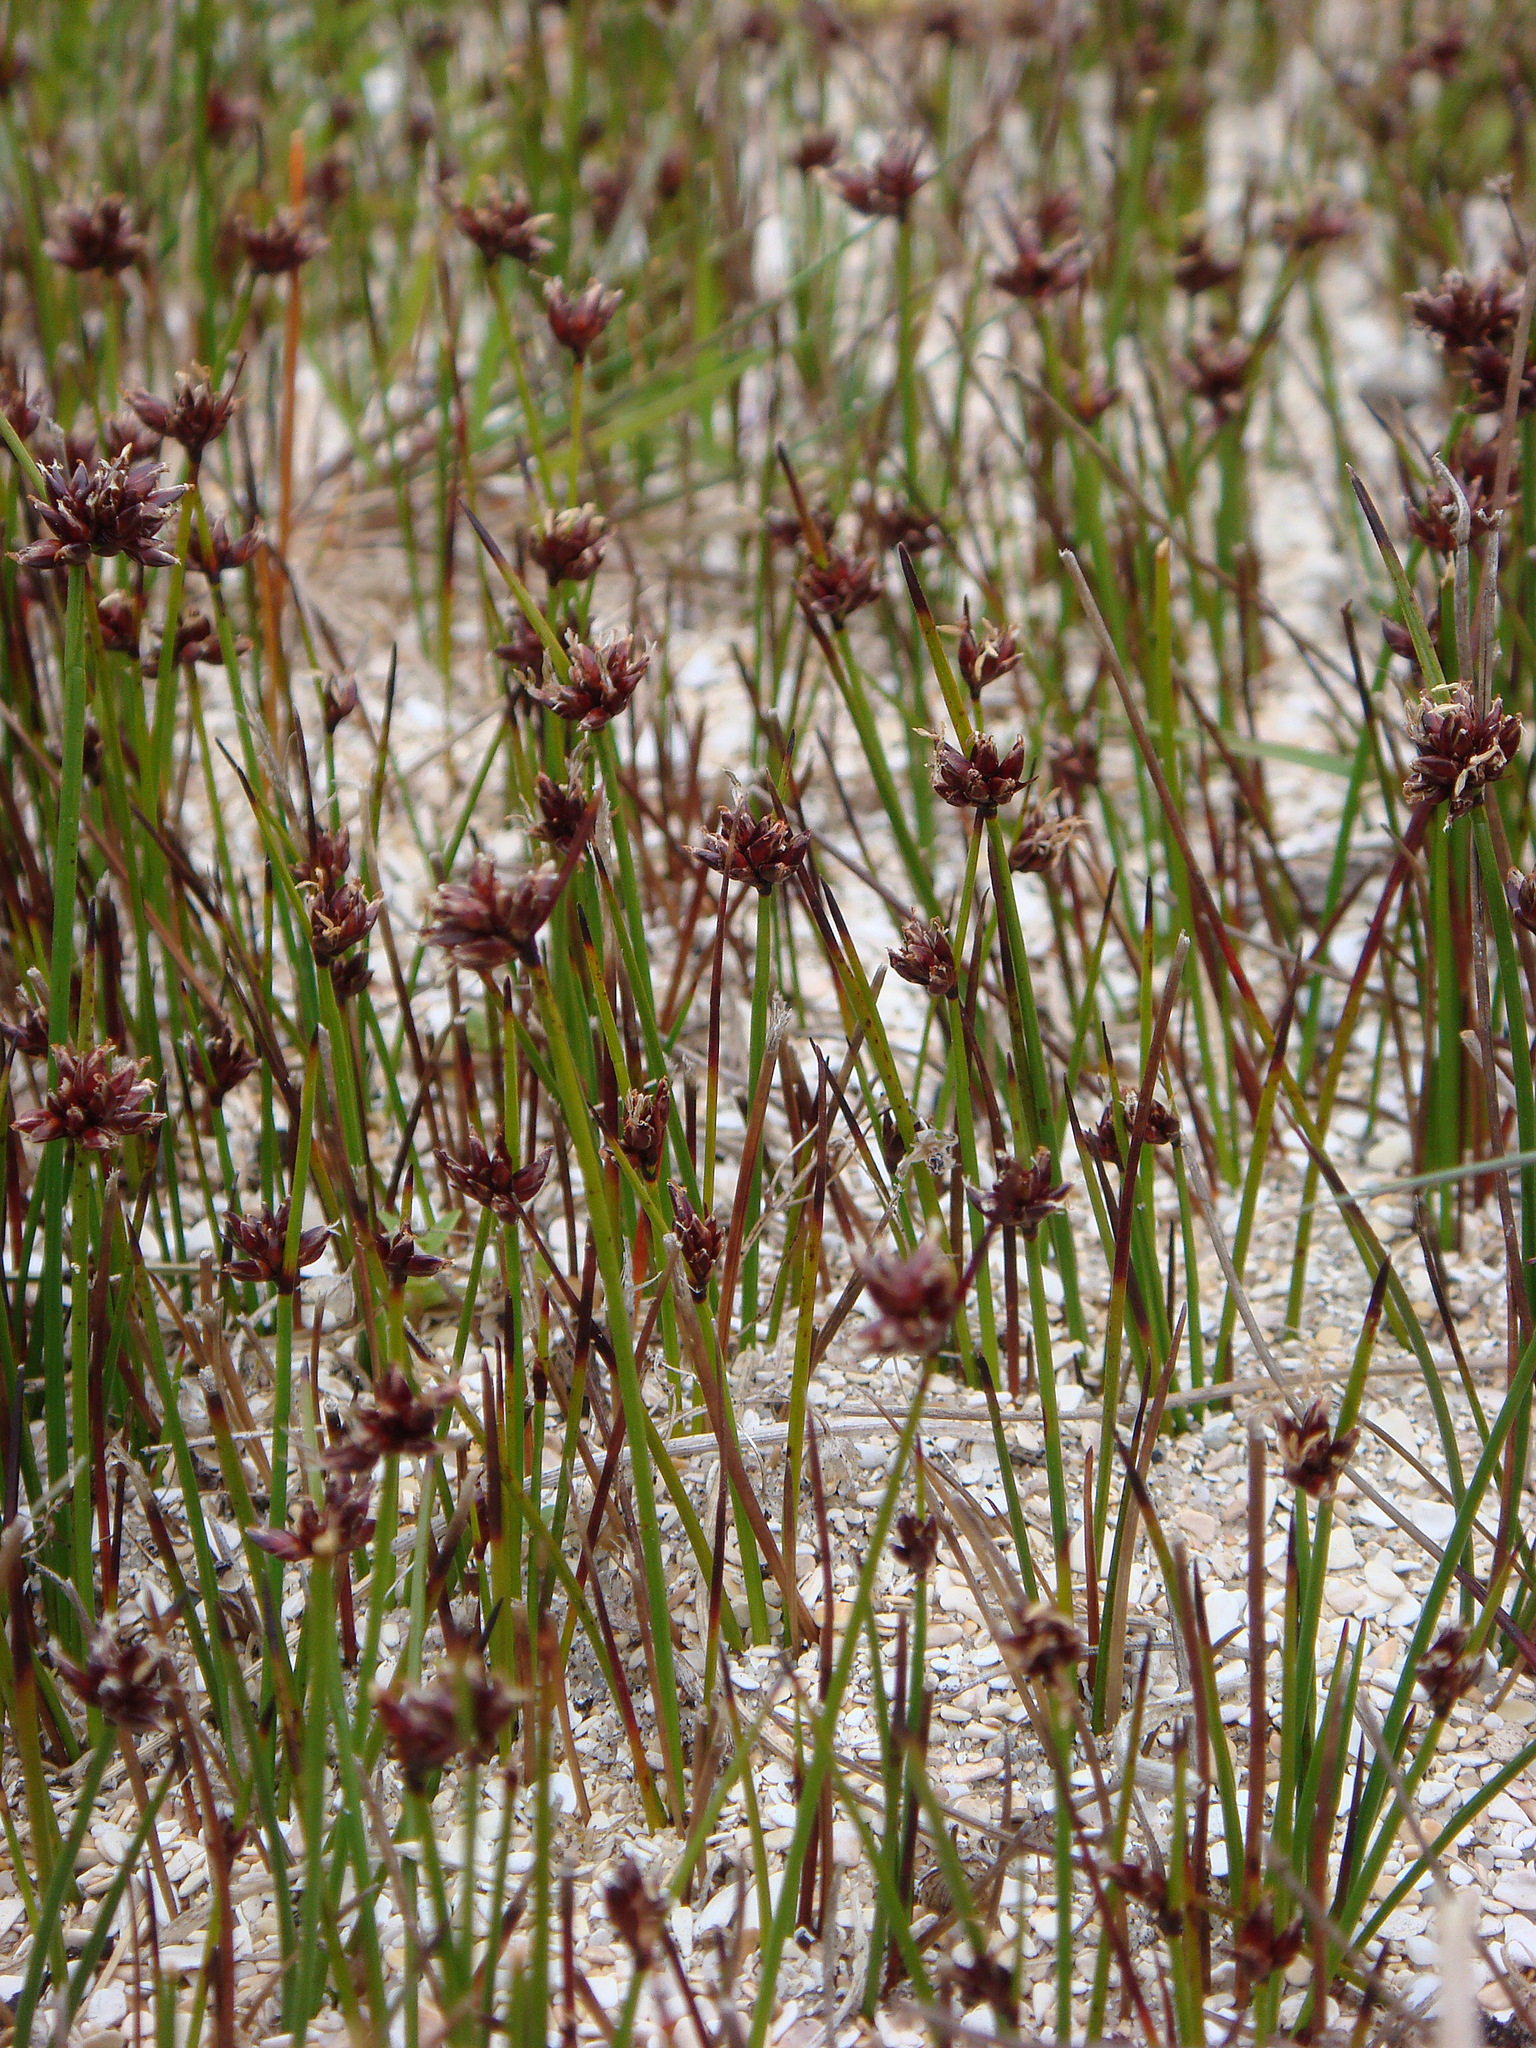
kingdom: Plantae
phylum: Tracheophyta
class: Liliopsida
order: Poales
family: Cyperaceae
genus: Schoenus
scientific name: Schoenus nitens
